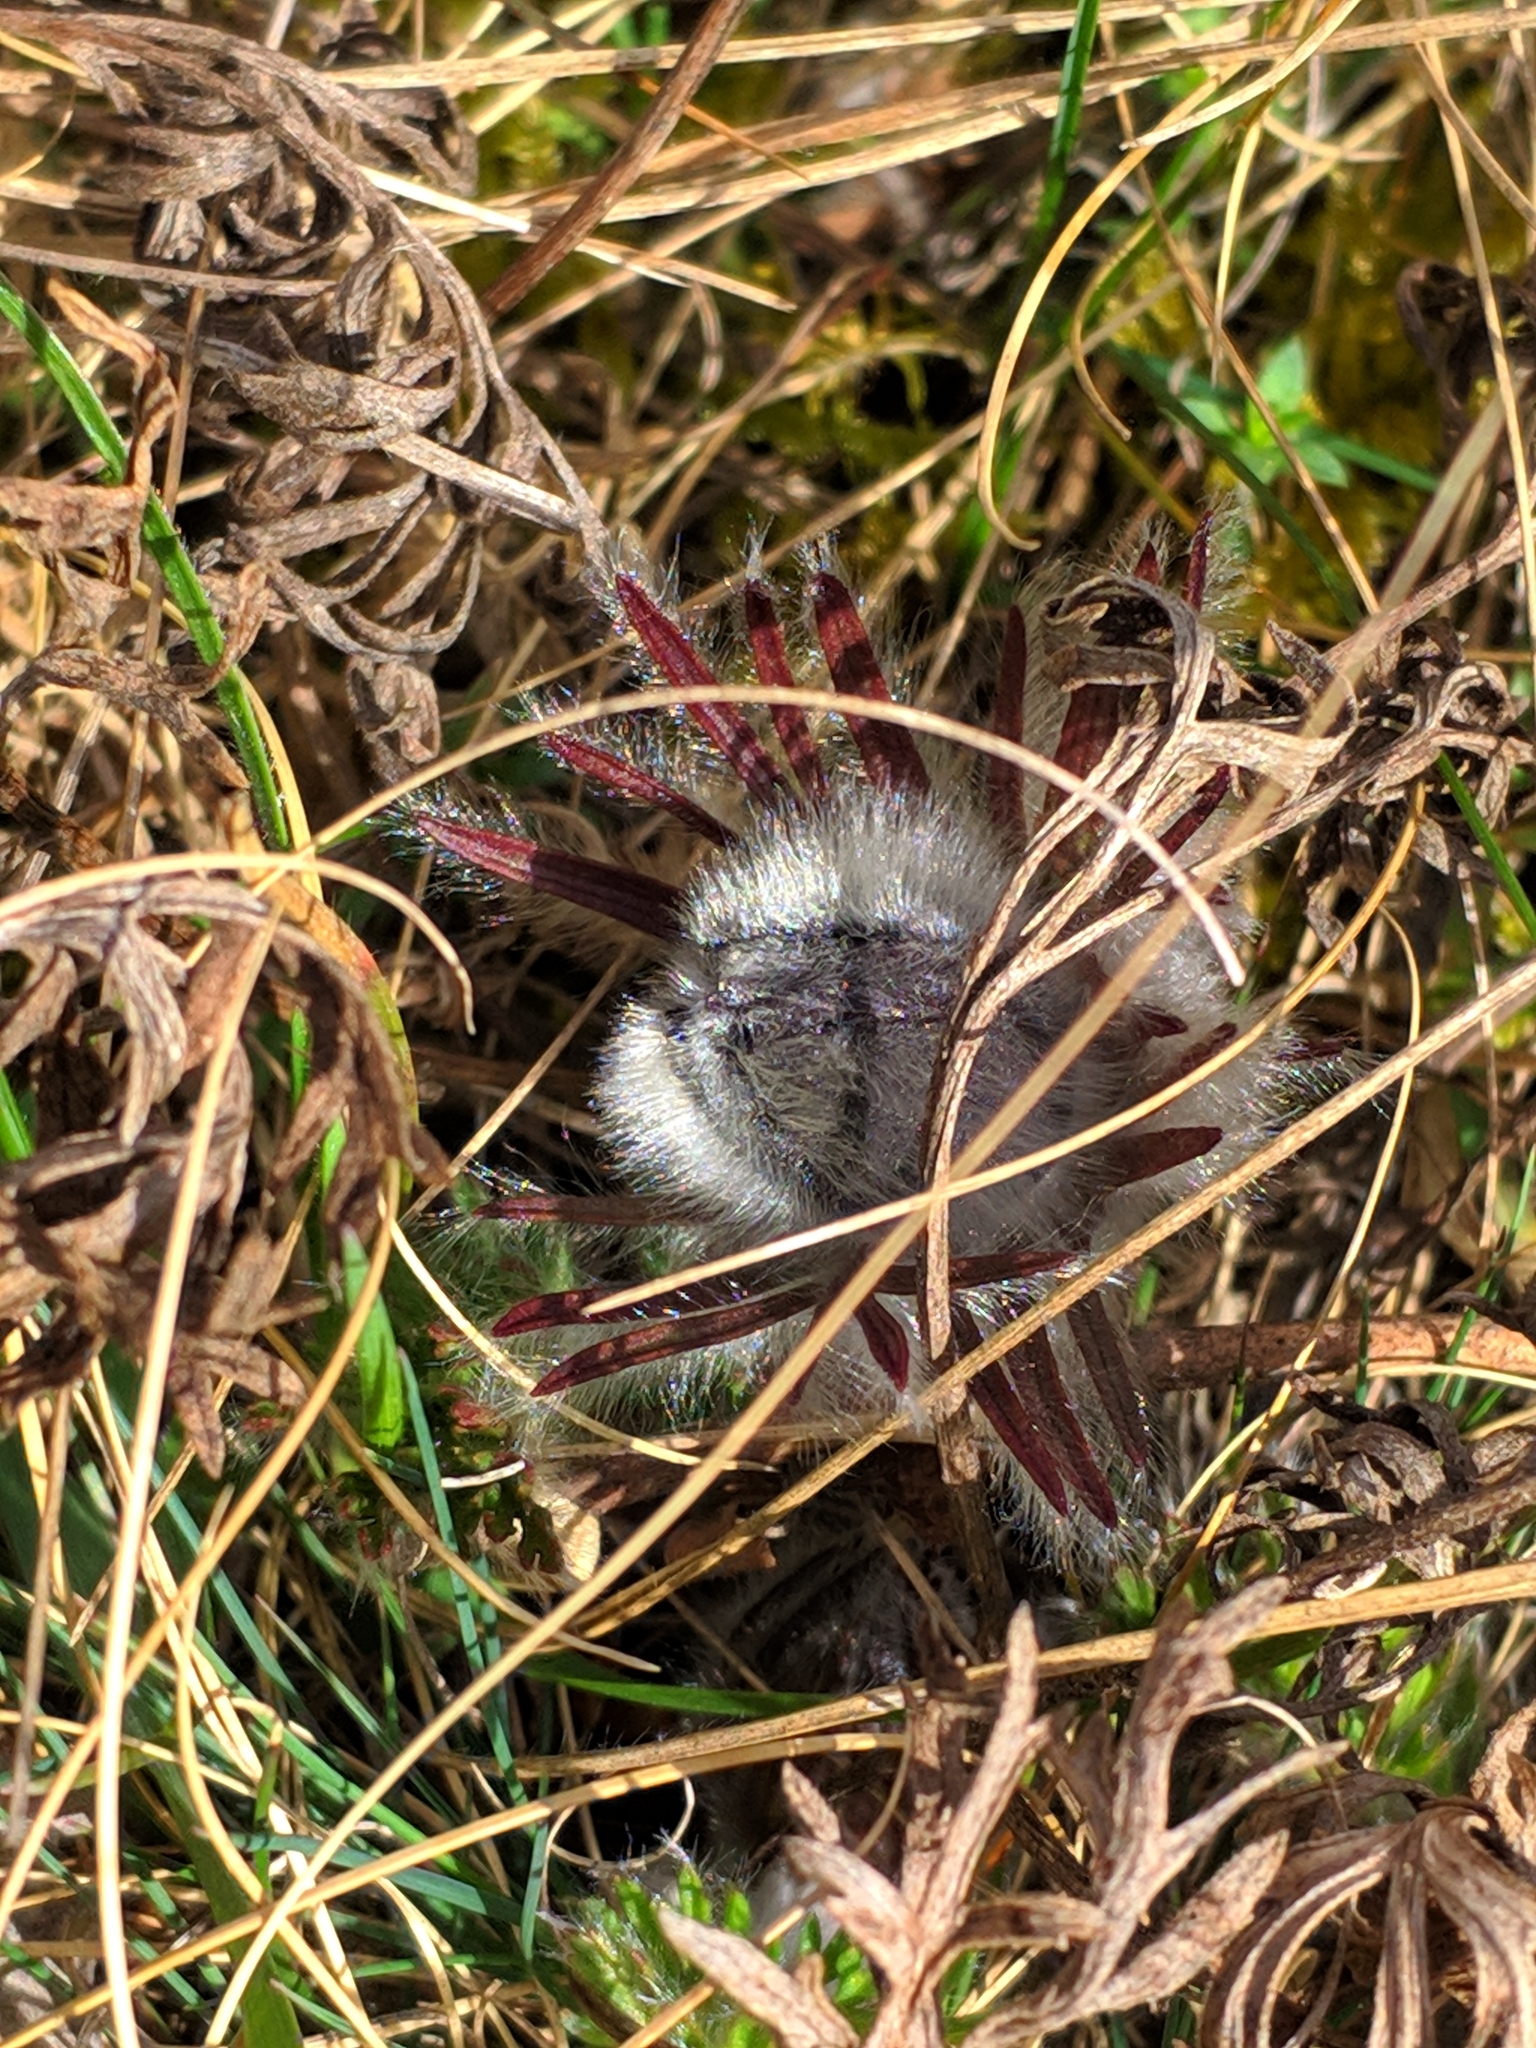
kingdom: Plantae
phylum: Tracheophyta
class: Magnoliopsida
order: Ranunculales
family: Ranunculaceae
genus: Pulsatilla
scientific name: Pulsatilla pratensis
